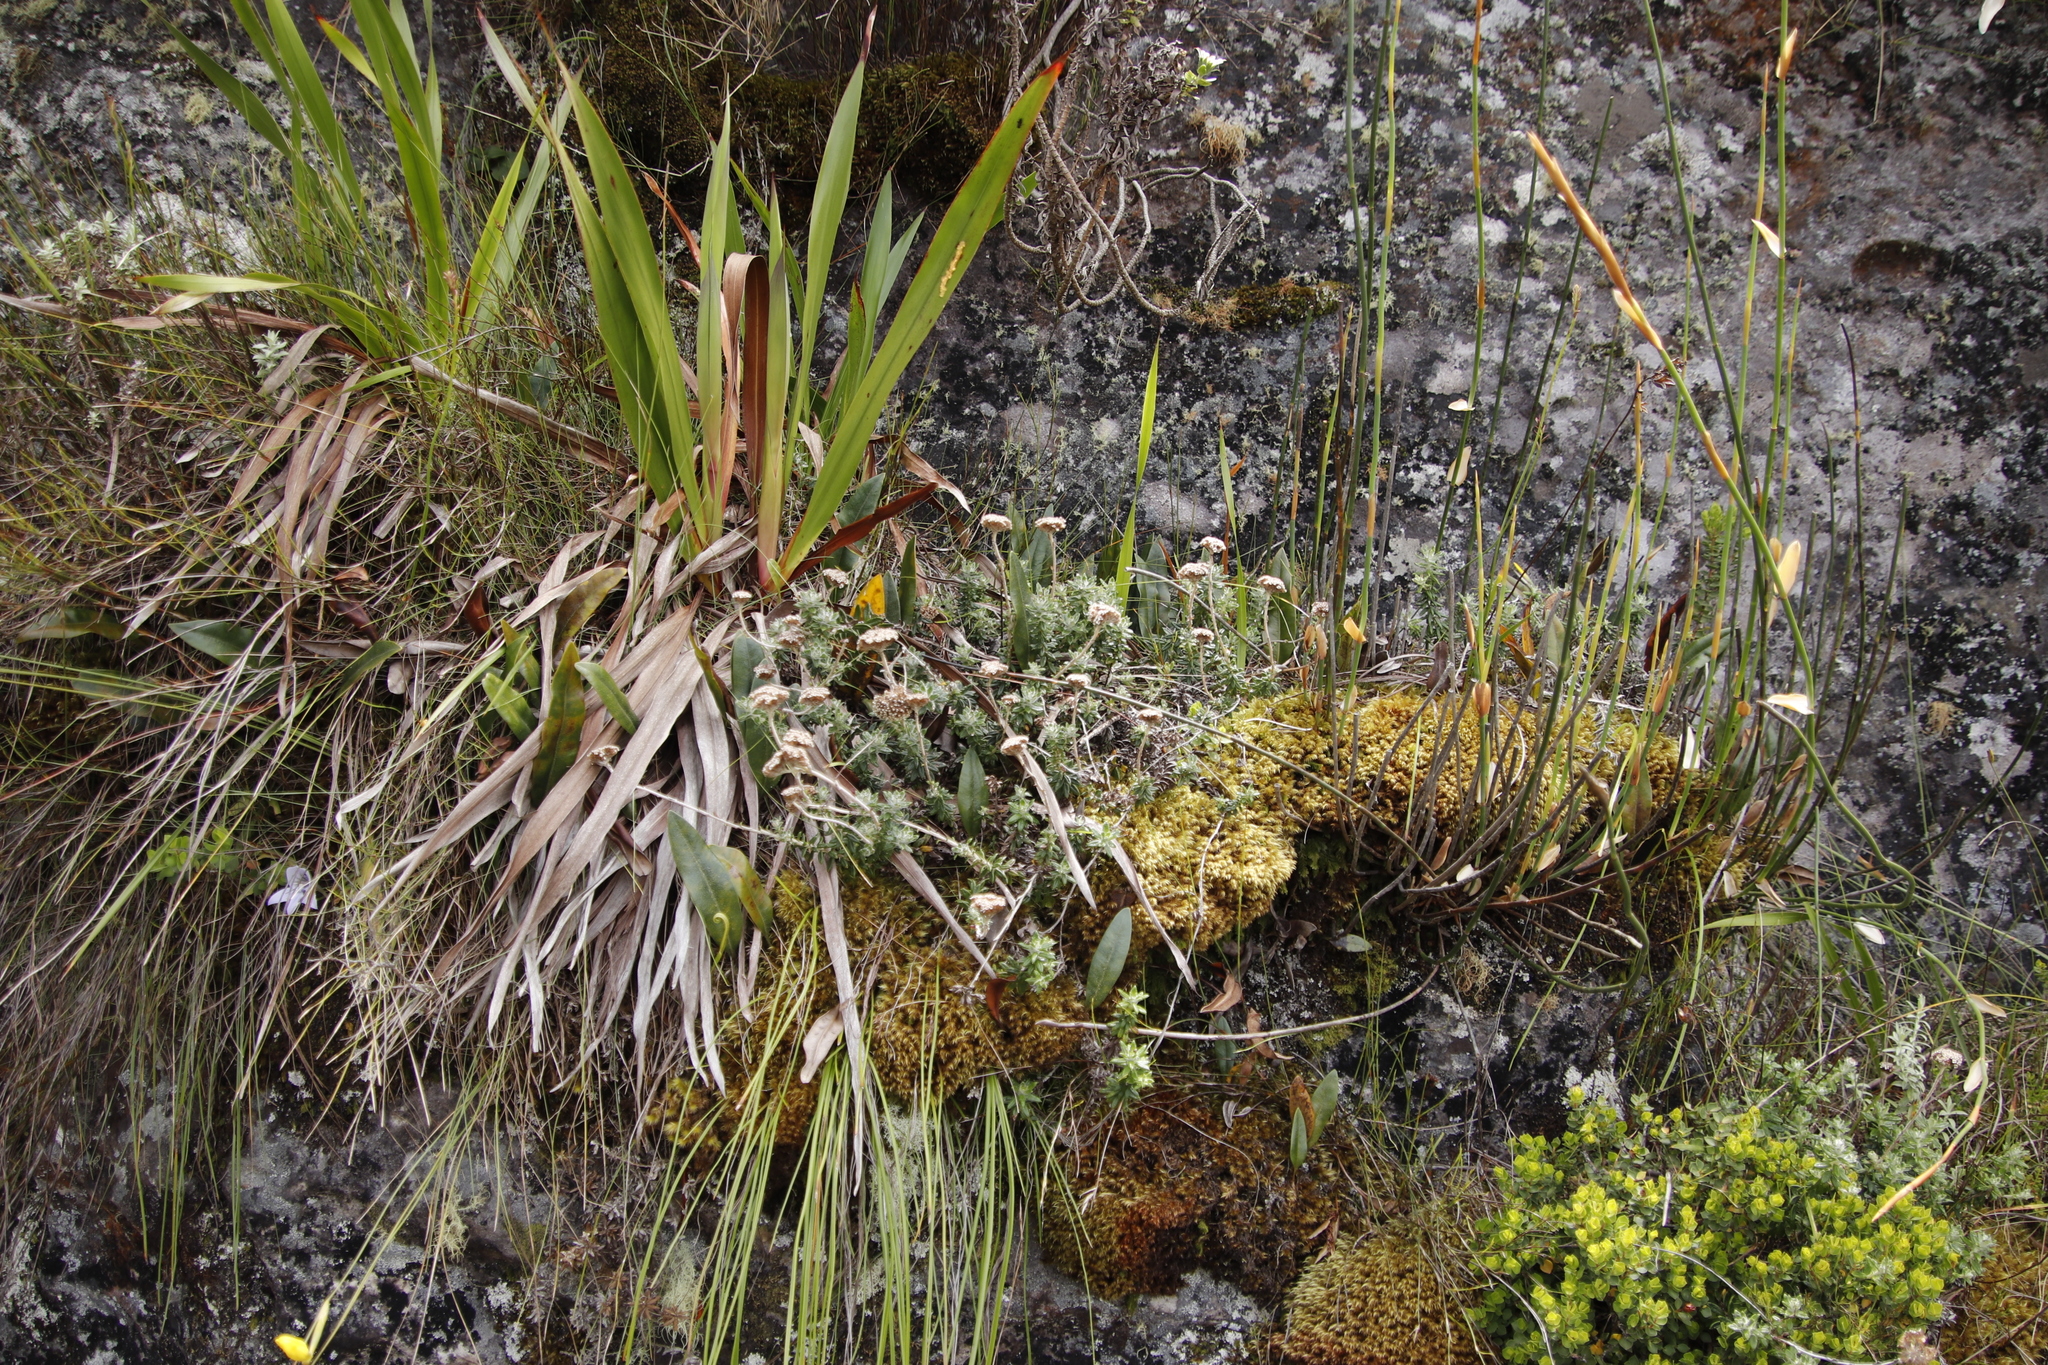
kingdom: Plantae
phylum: Tracheophyta
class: Magnoliopsida
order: Asterales
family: Asteraceae
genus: Anaxeton
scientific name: Anaxeton arborescens
